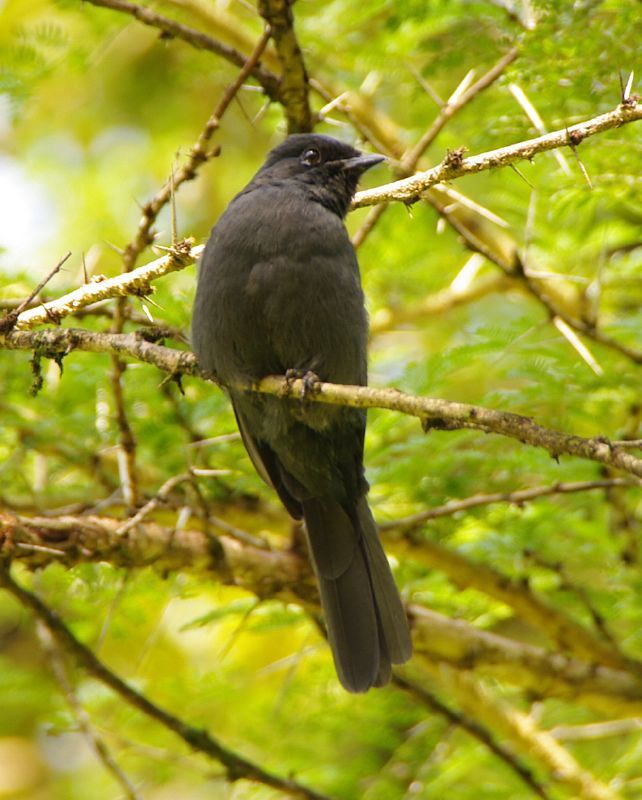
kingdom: Animalia
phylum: Chordata
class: Aves
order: Passeriformes
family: Muscicapidae
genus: Melaenornis
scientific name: Melaenornis edolioides
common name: Northern black flycatcher
